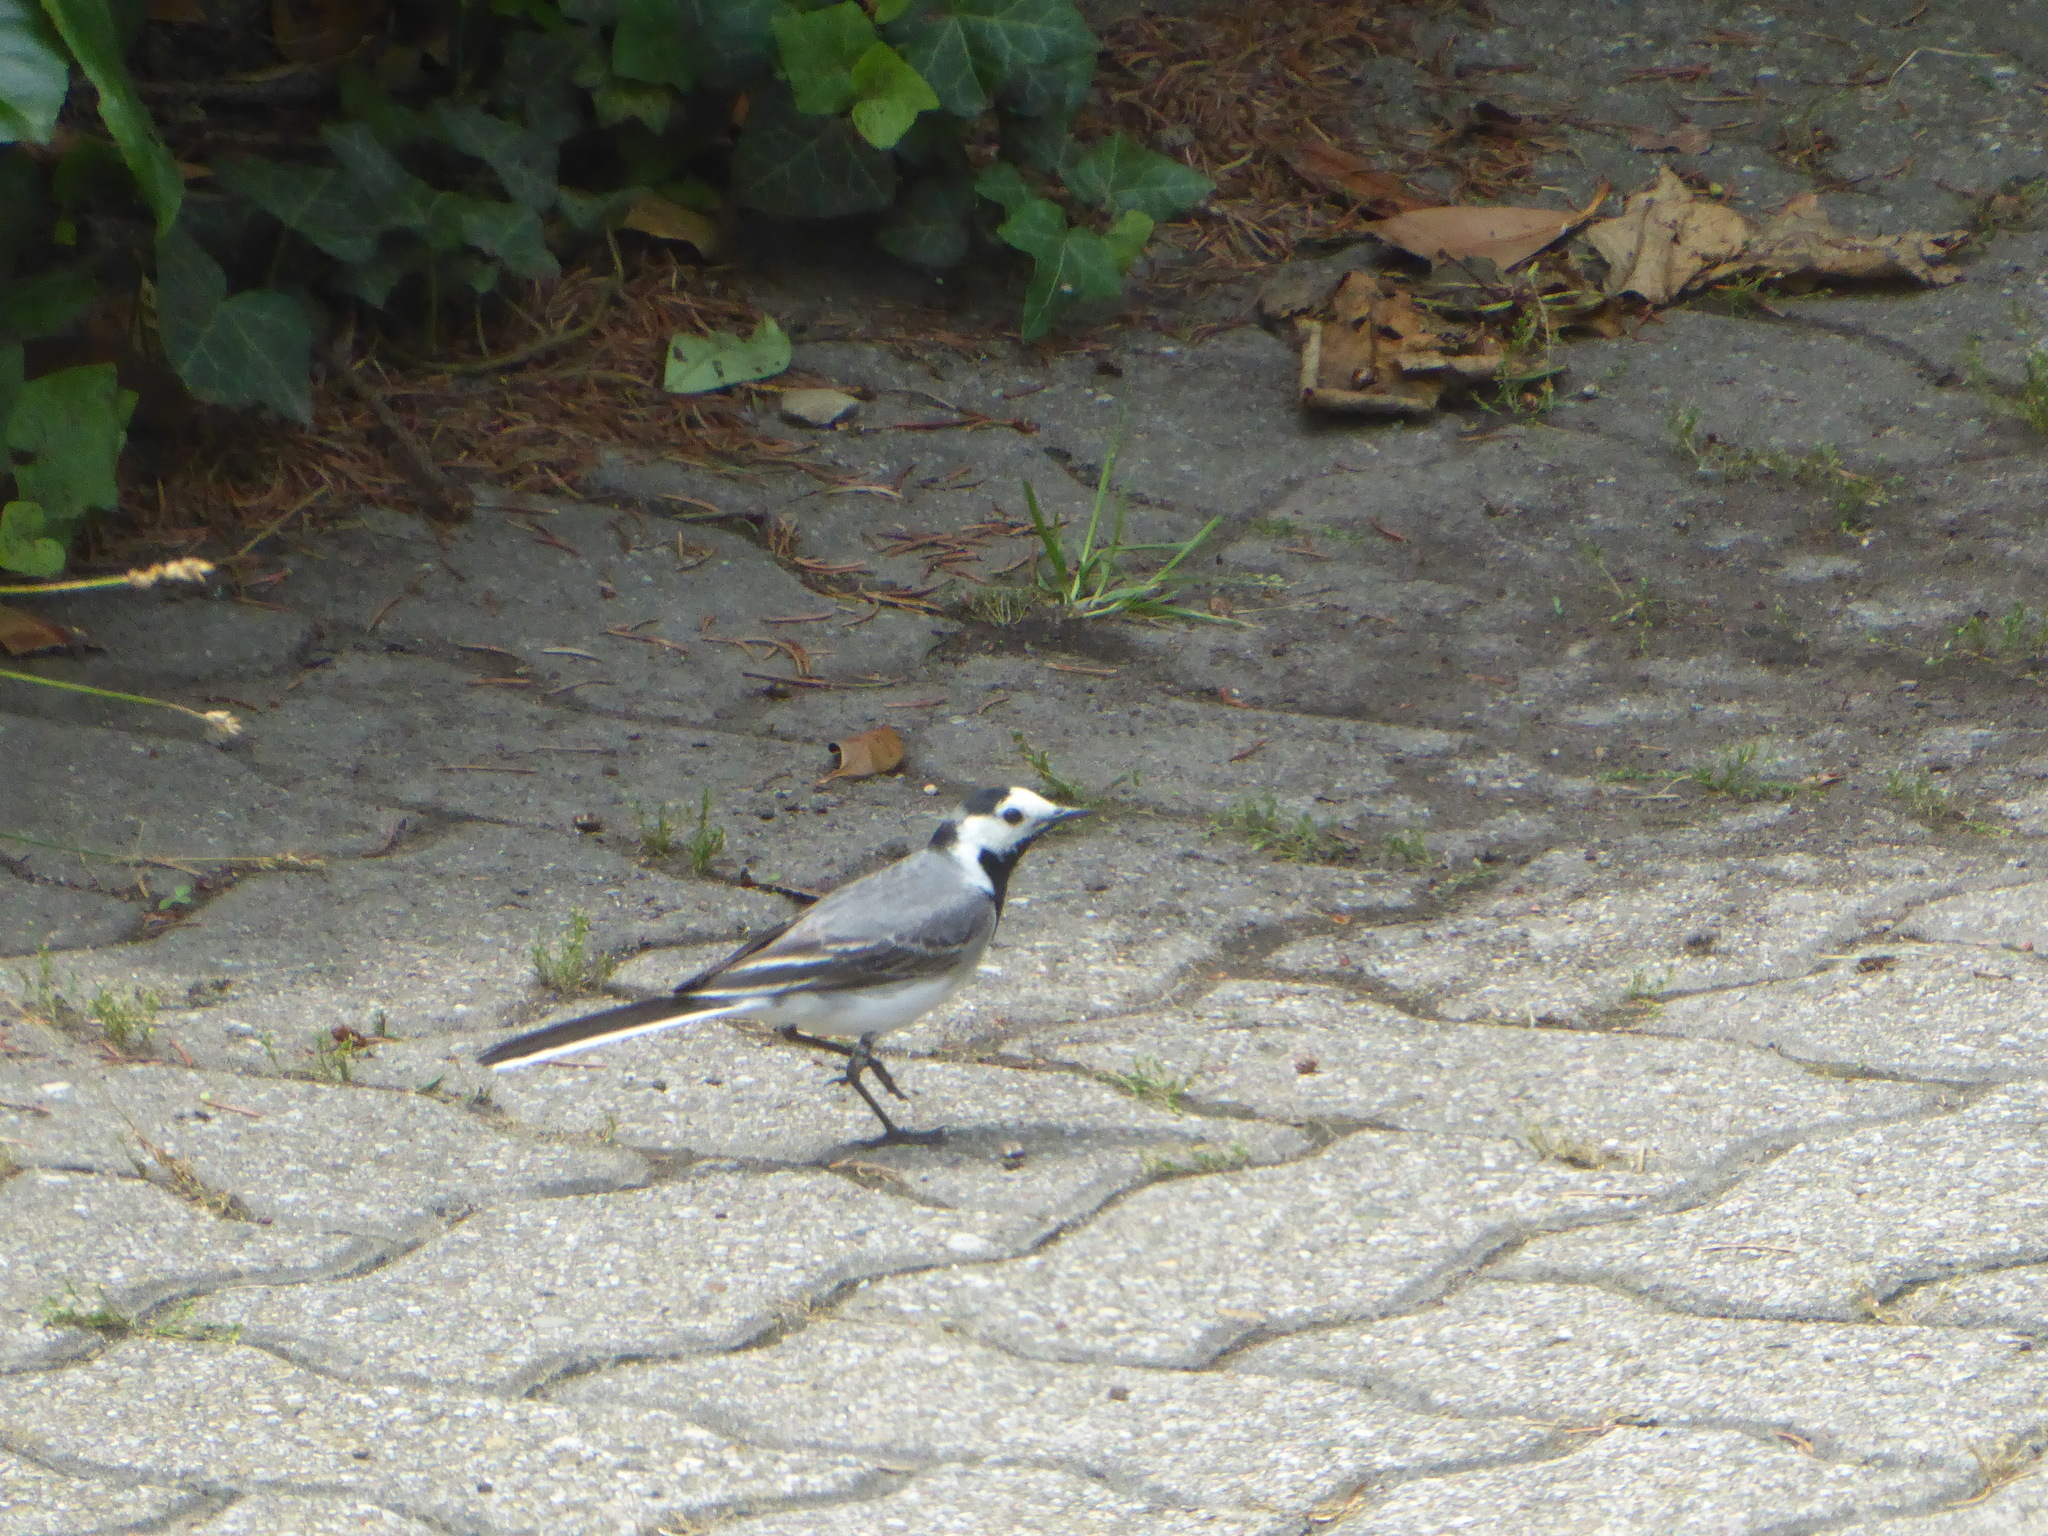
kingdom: Animalia
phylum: Chordata
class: Aves
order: Passeriformes
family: Motacillidae
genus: Motacilla
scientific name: Motacilla alba
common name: White wagtail
